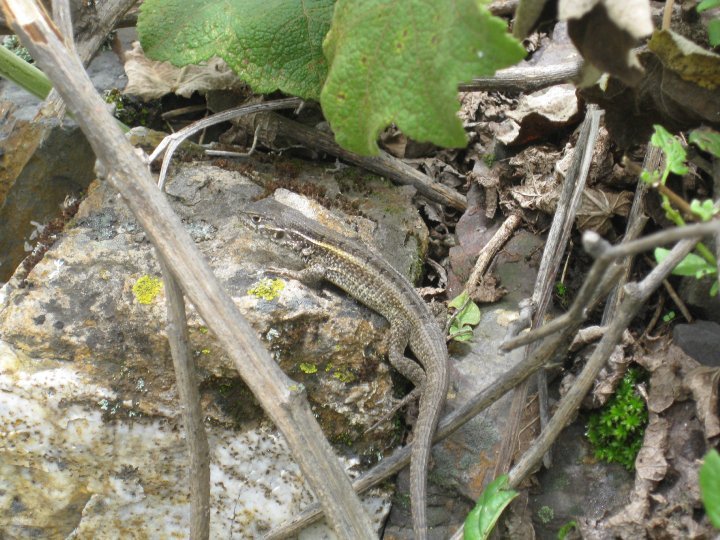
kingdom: Animalia
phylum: Chordata
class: Squamata
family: Tropiduridae
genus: Stenocercus
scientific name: Stenocercus ornatissimus
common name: Lesser ornate whorltail iguana
